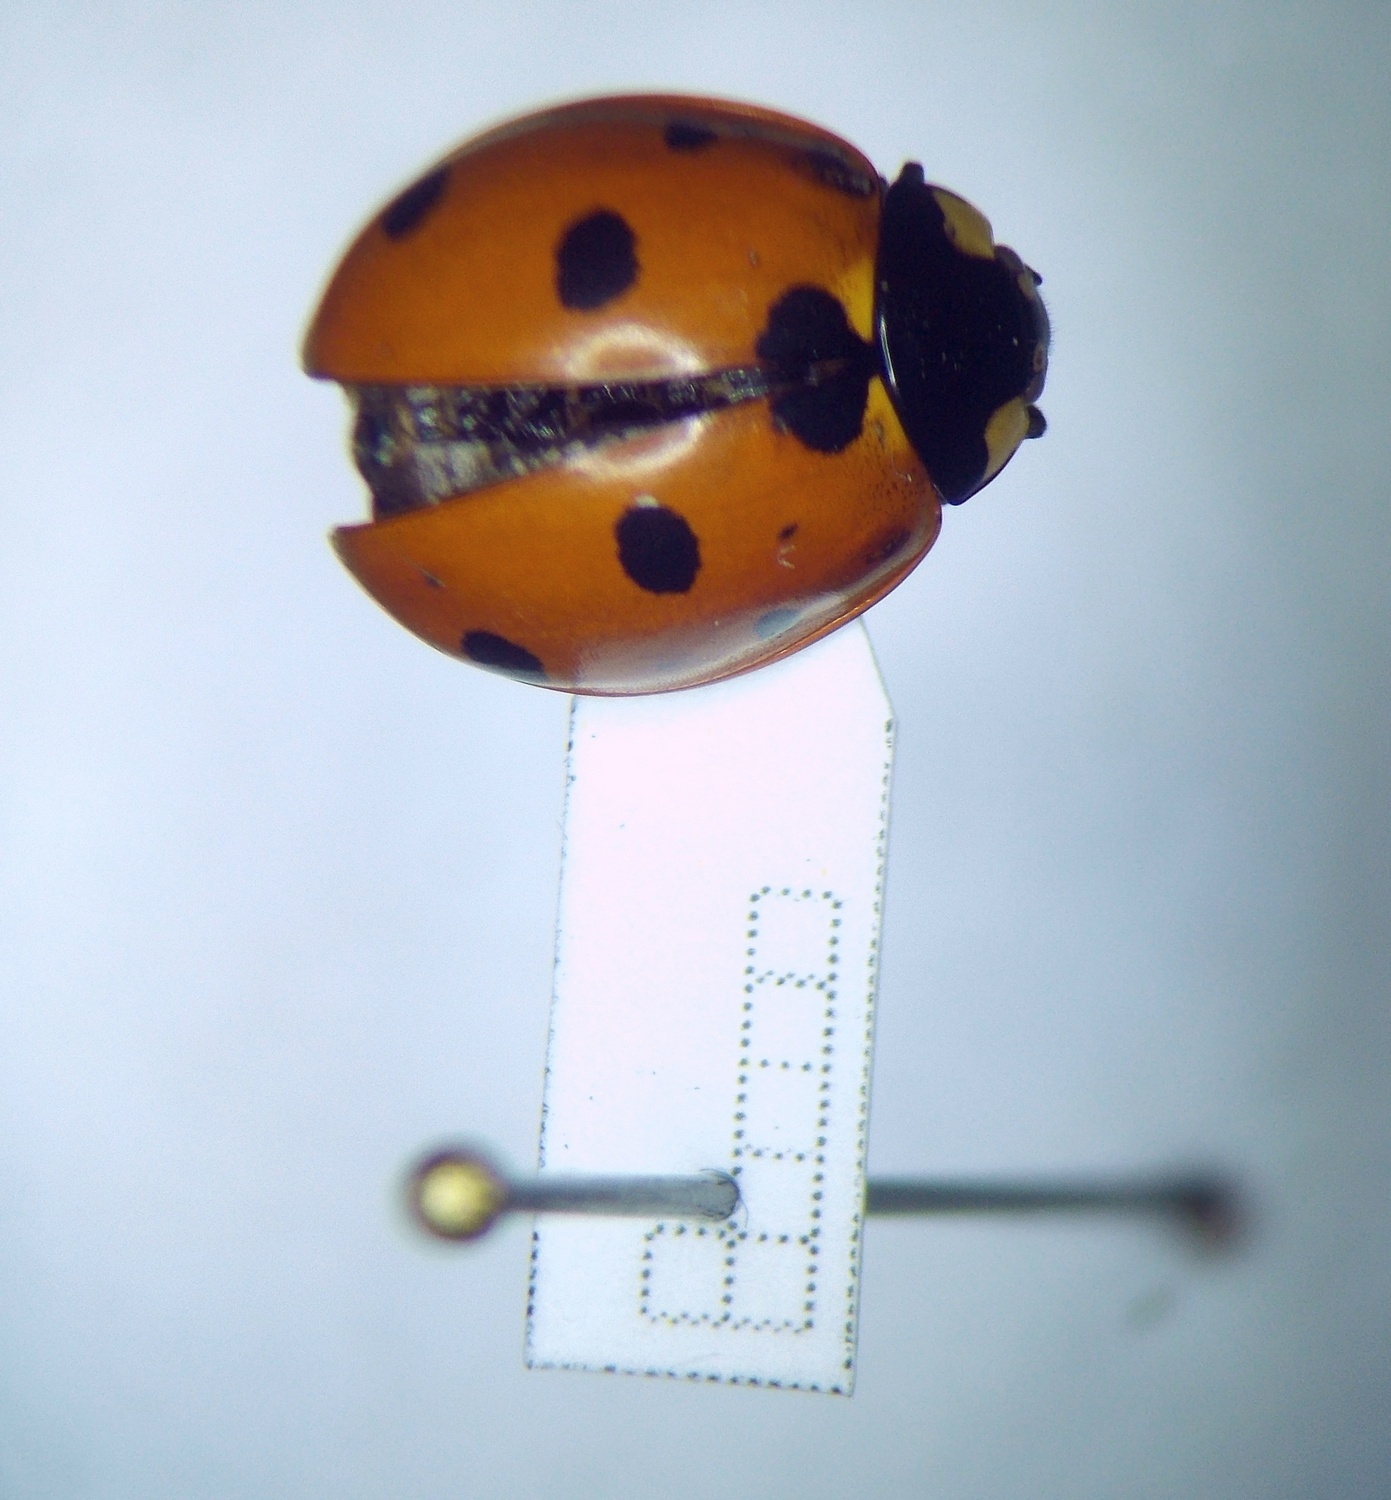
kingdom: Animalia
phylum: Arthropoda
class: Insecta
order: Coleoptera
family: Coccinellidae
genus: Coccinella
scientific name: Coccinella septempunctata
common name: Sevenspotted lady beetle
